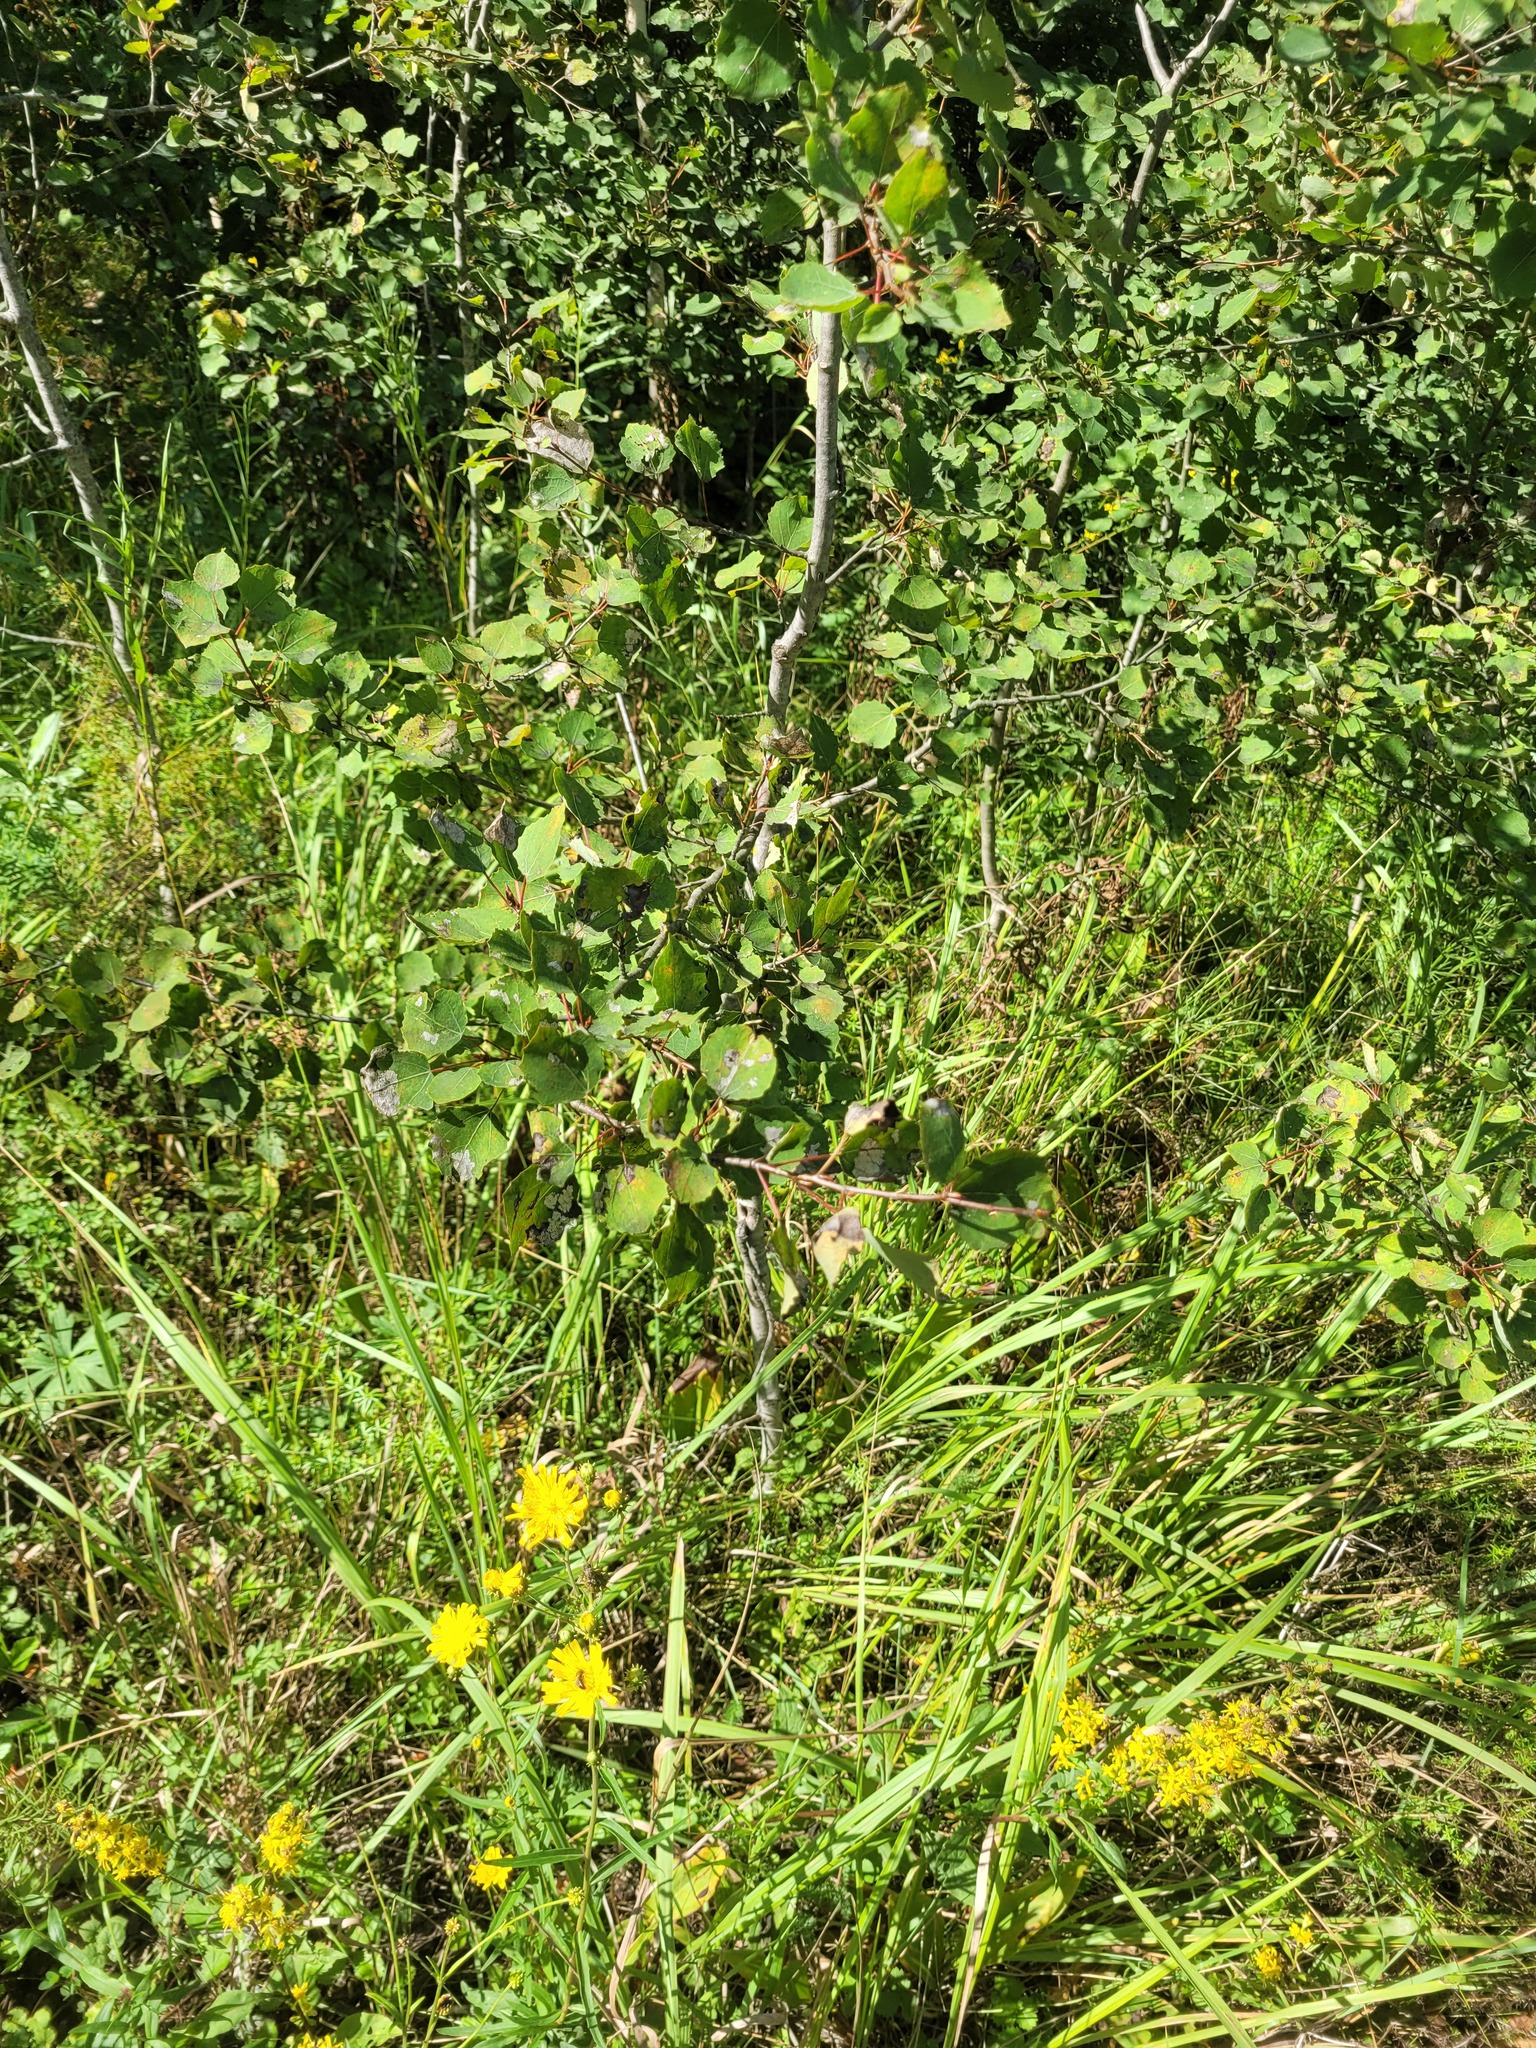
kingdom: Plantae
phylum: Tracheophyta
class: Magnoliopsida
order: Malpighiales
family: Salicaceae
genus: Populus
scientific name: Populus tremula
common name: European aspen
